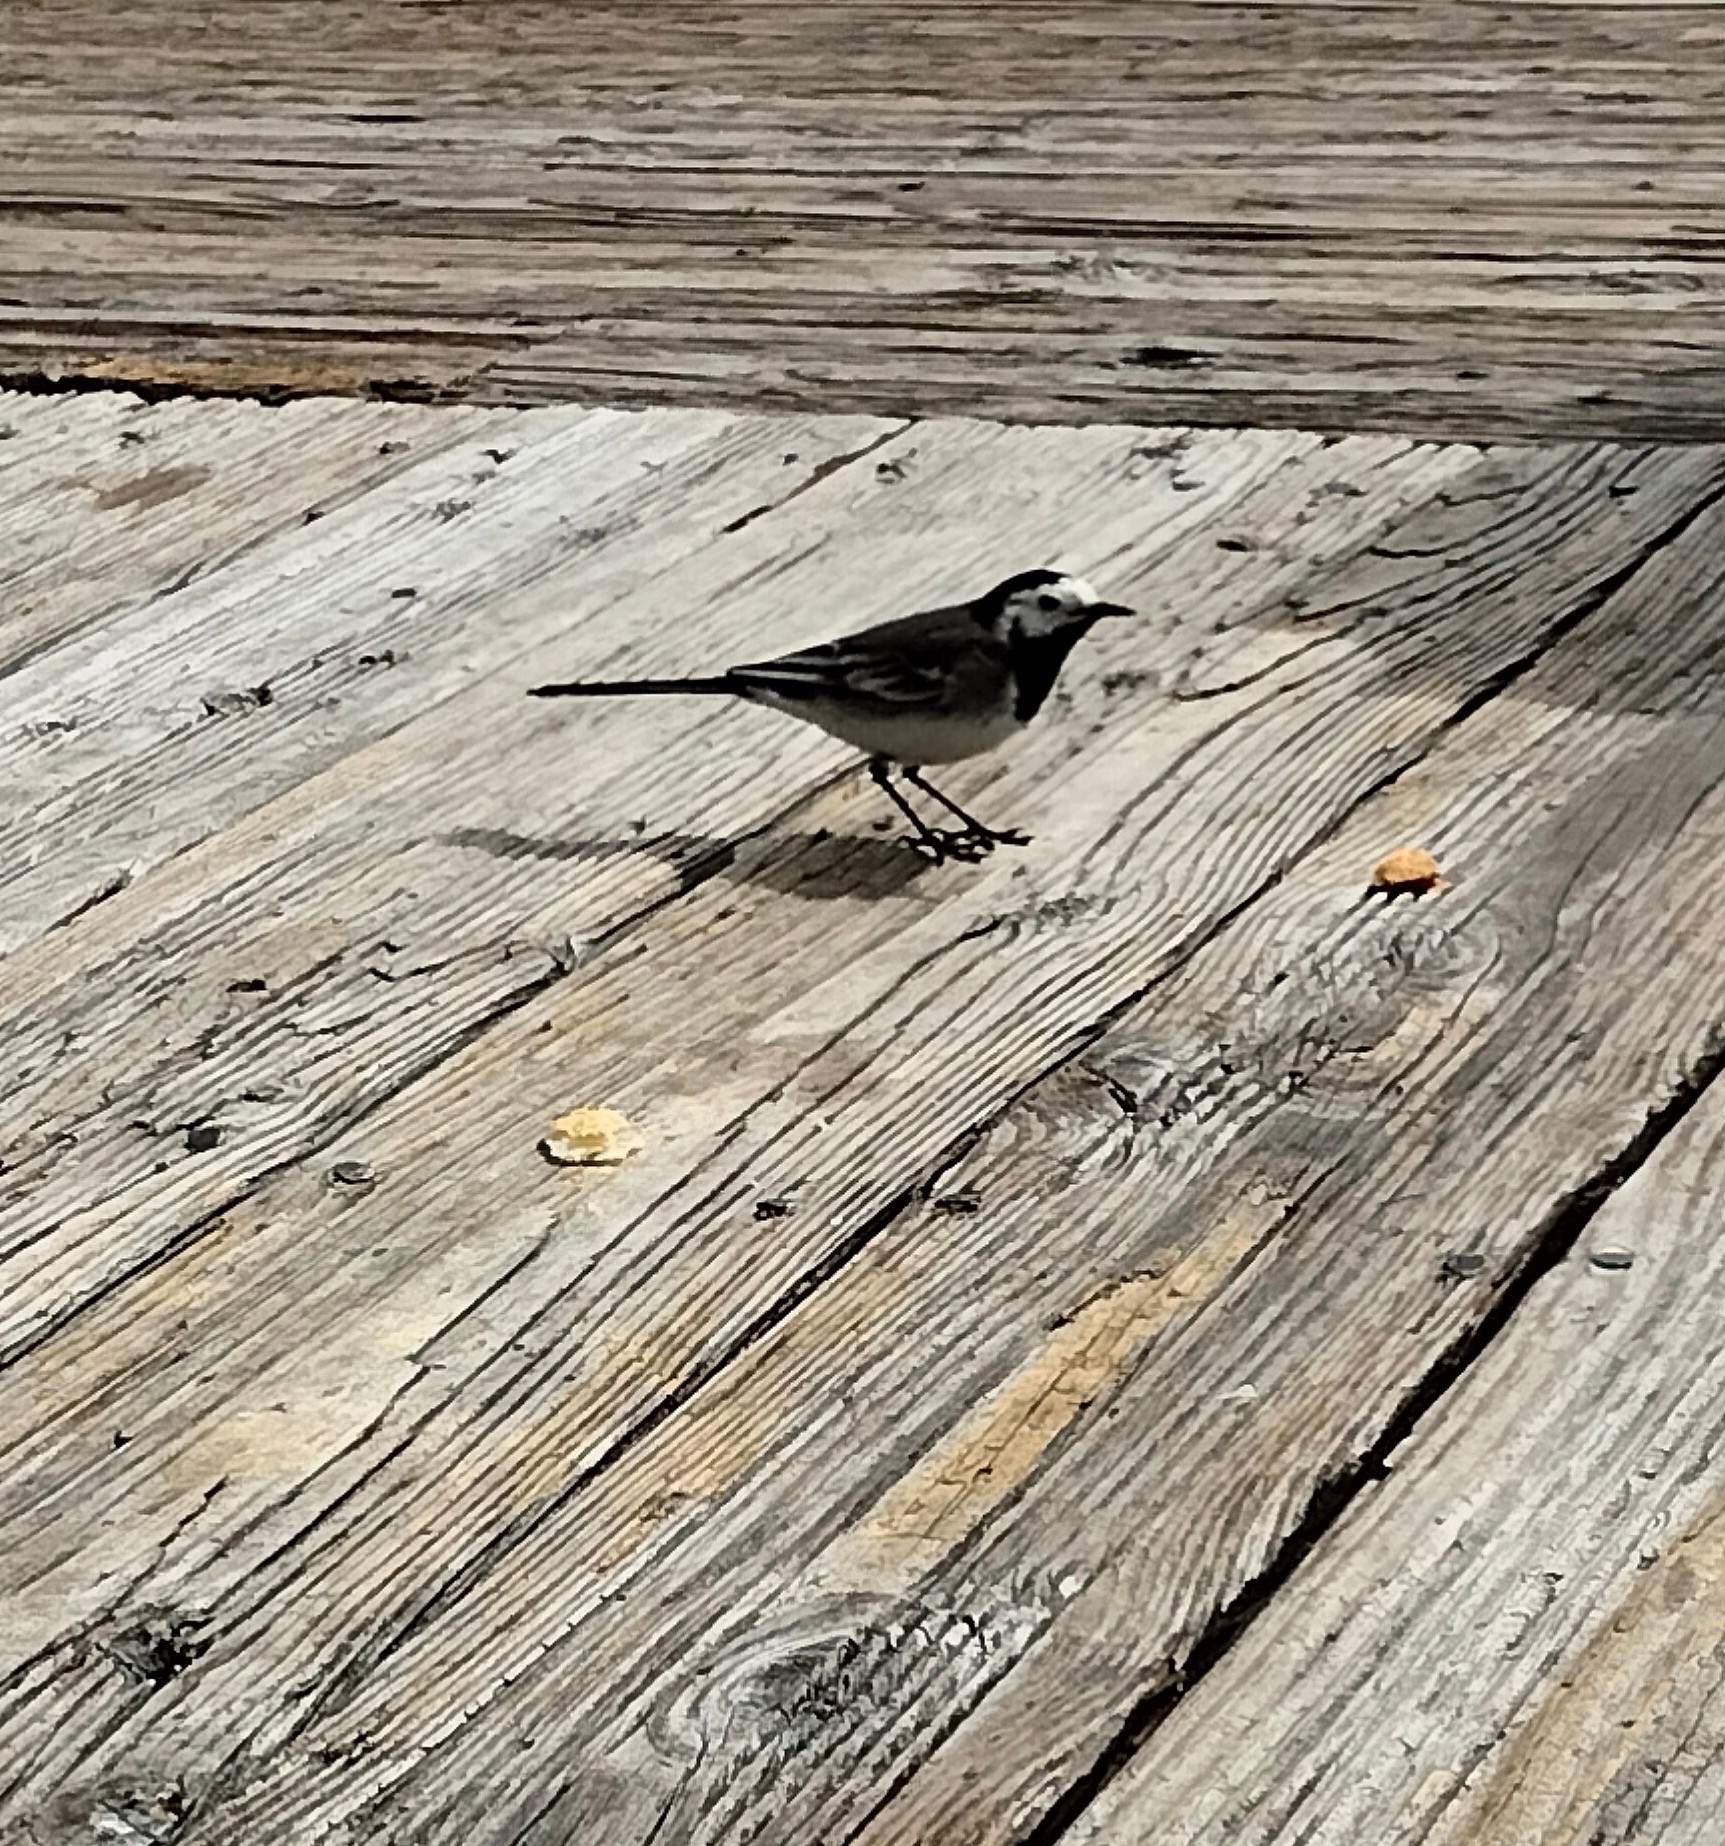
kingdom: Animalia
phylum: Chordata
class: Aves
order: Passeriformes
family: Motacillidae
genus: Motacilla
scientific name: Motacilla alba
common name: White wagtail
